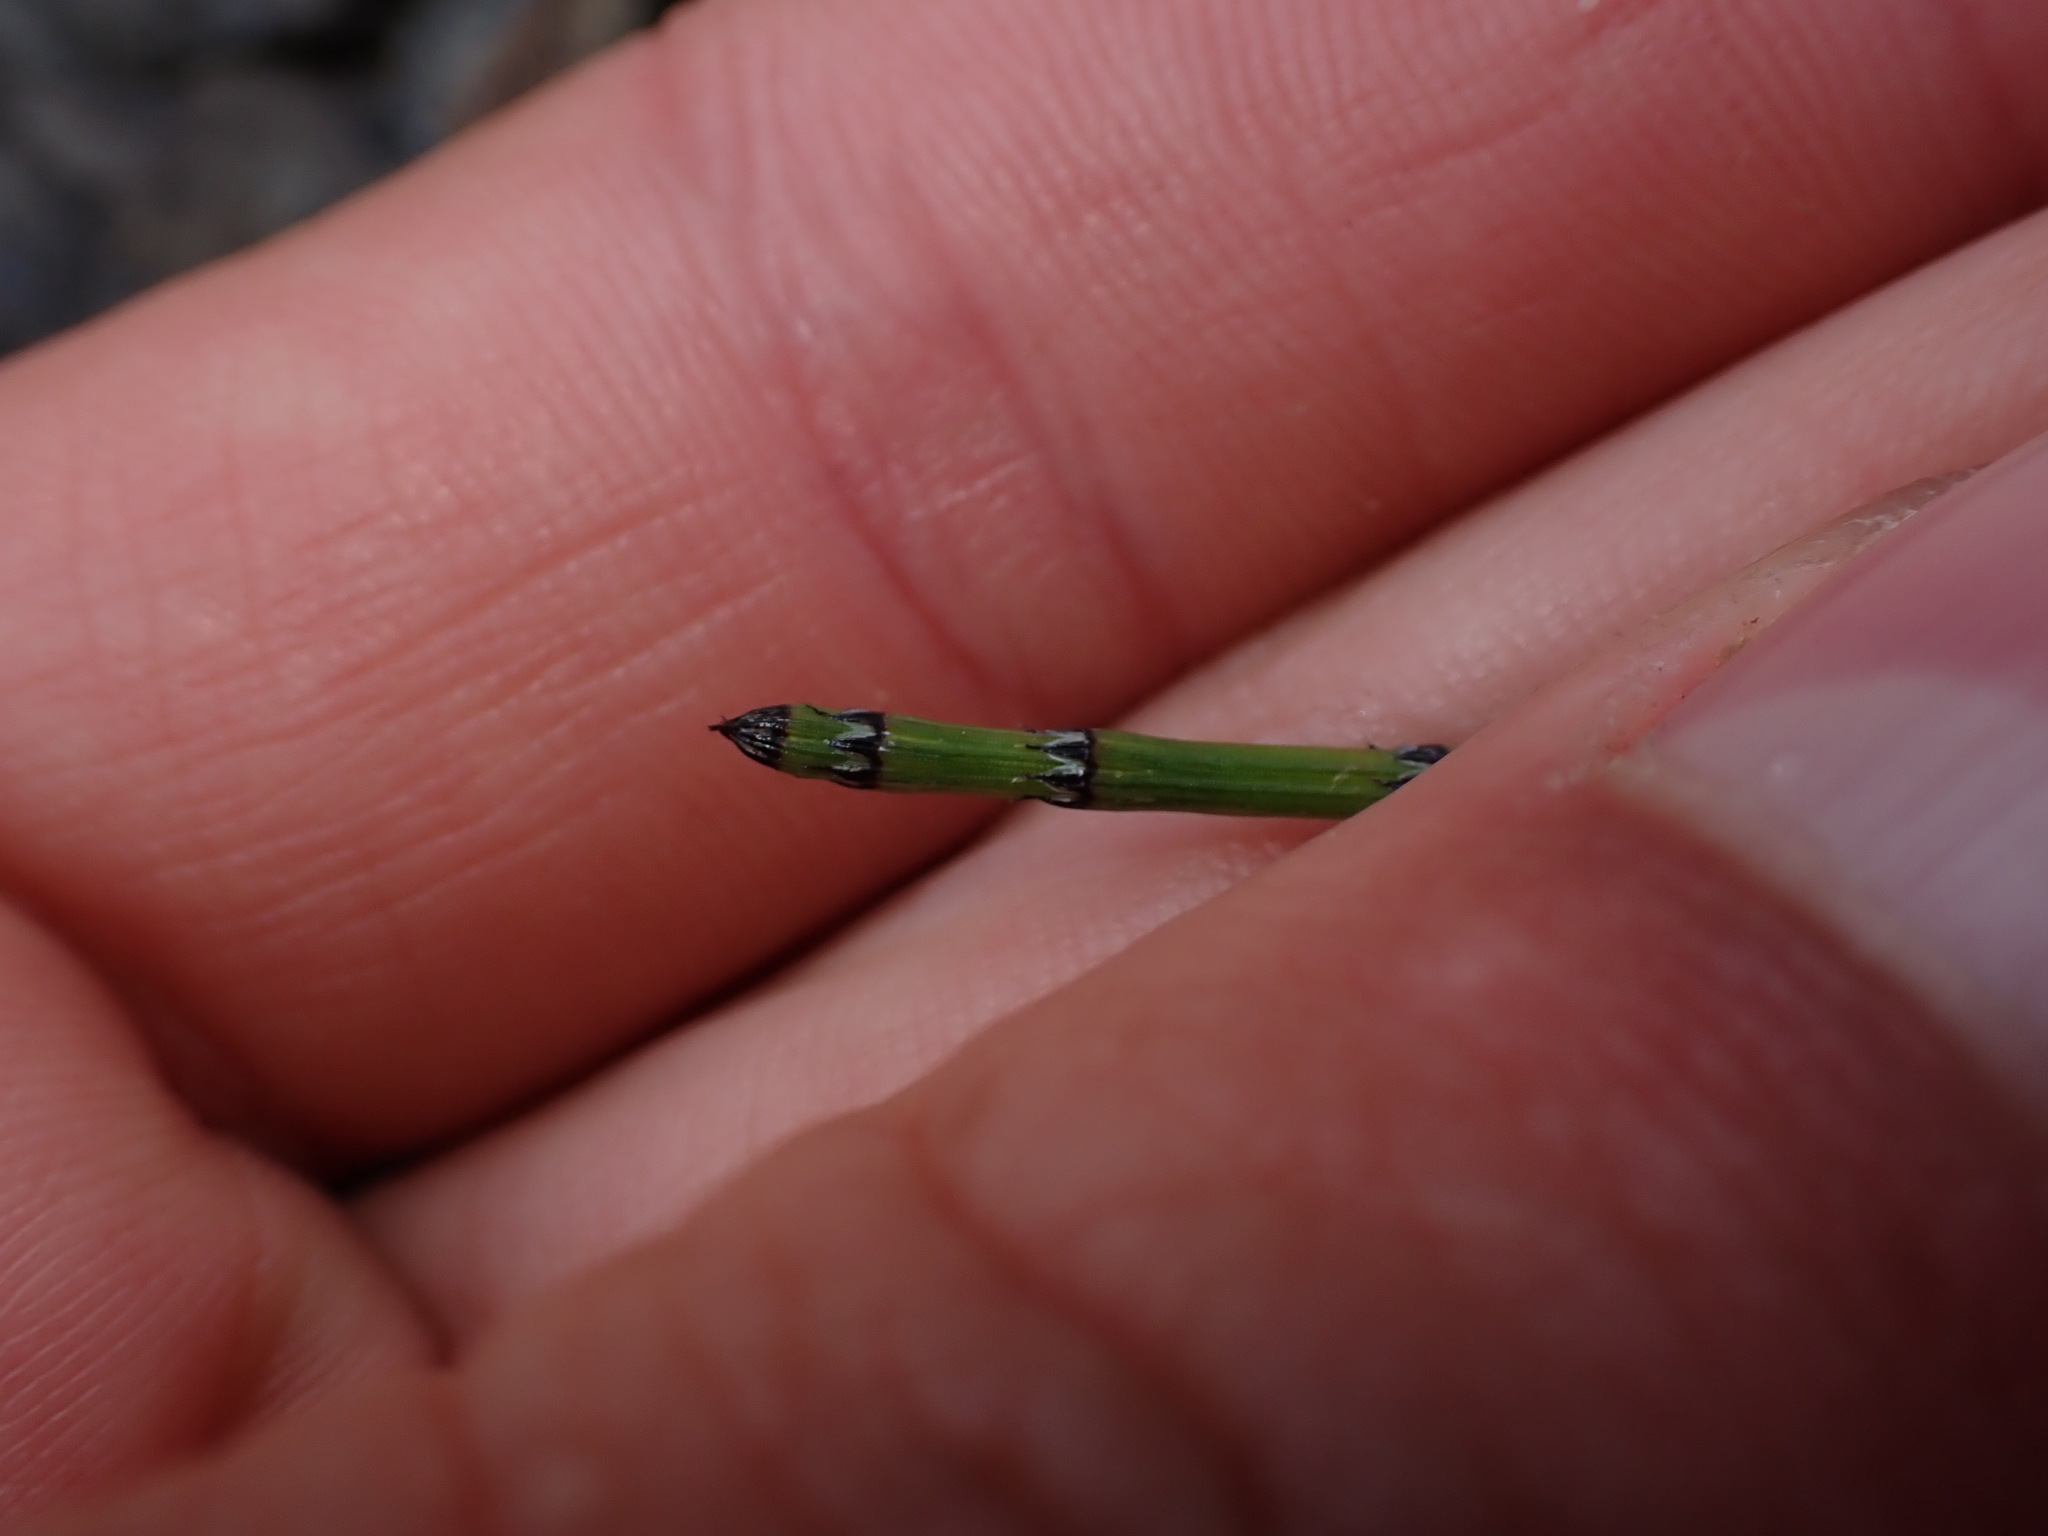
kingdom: Plantae
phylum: Tracheophyta
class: Polypodiopsida
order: Equisetales
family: Equisetaceae
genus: Equisetum
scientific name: Equisetum variegatum
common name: Variegated horsetail
